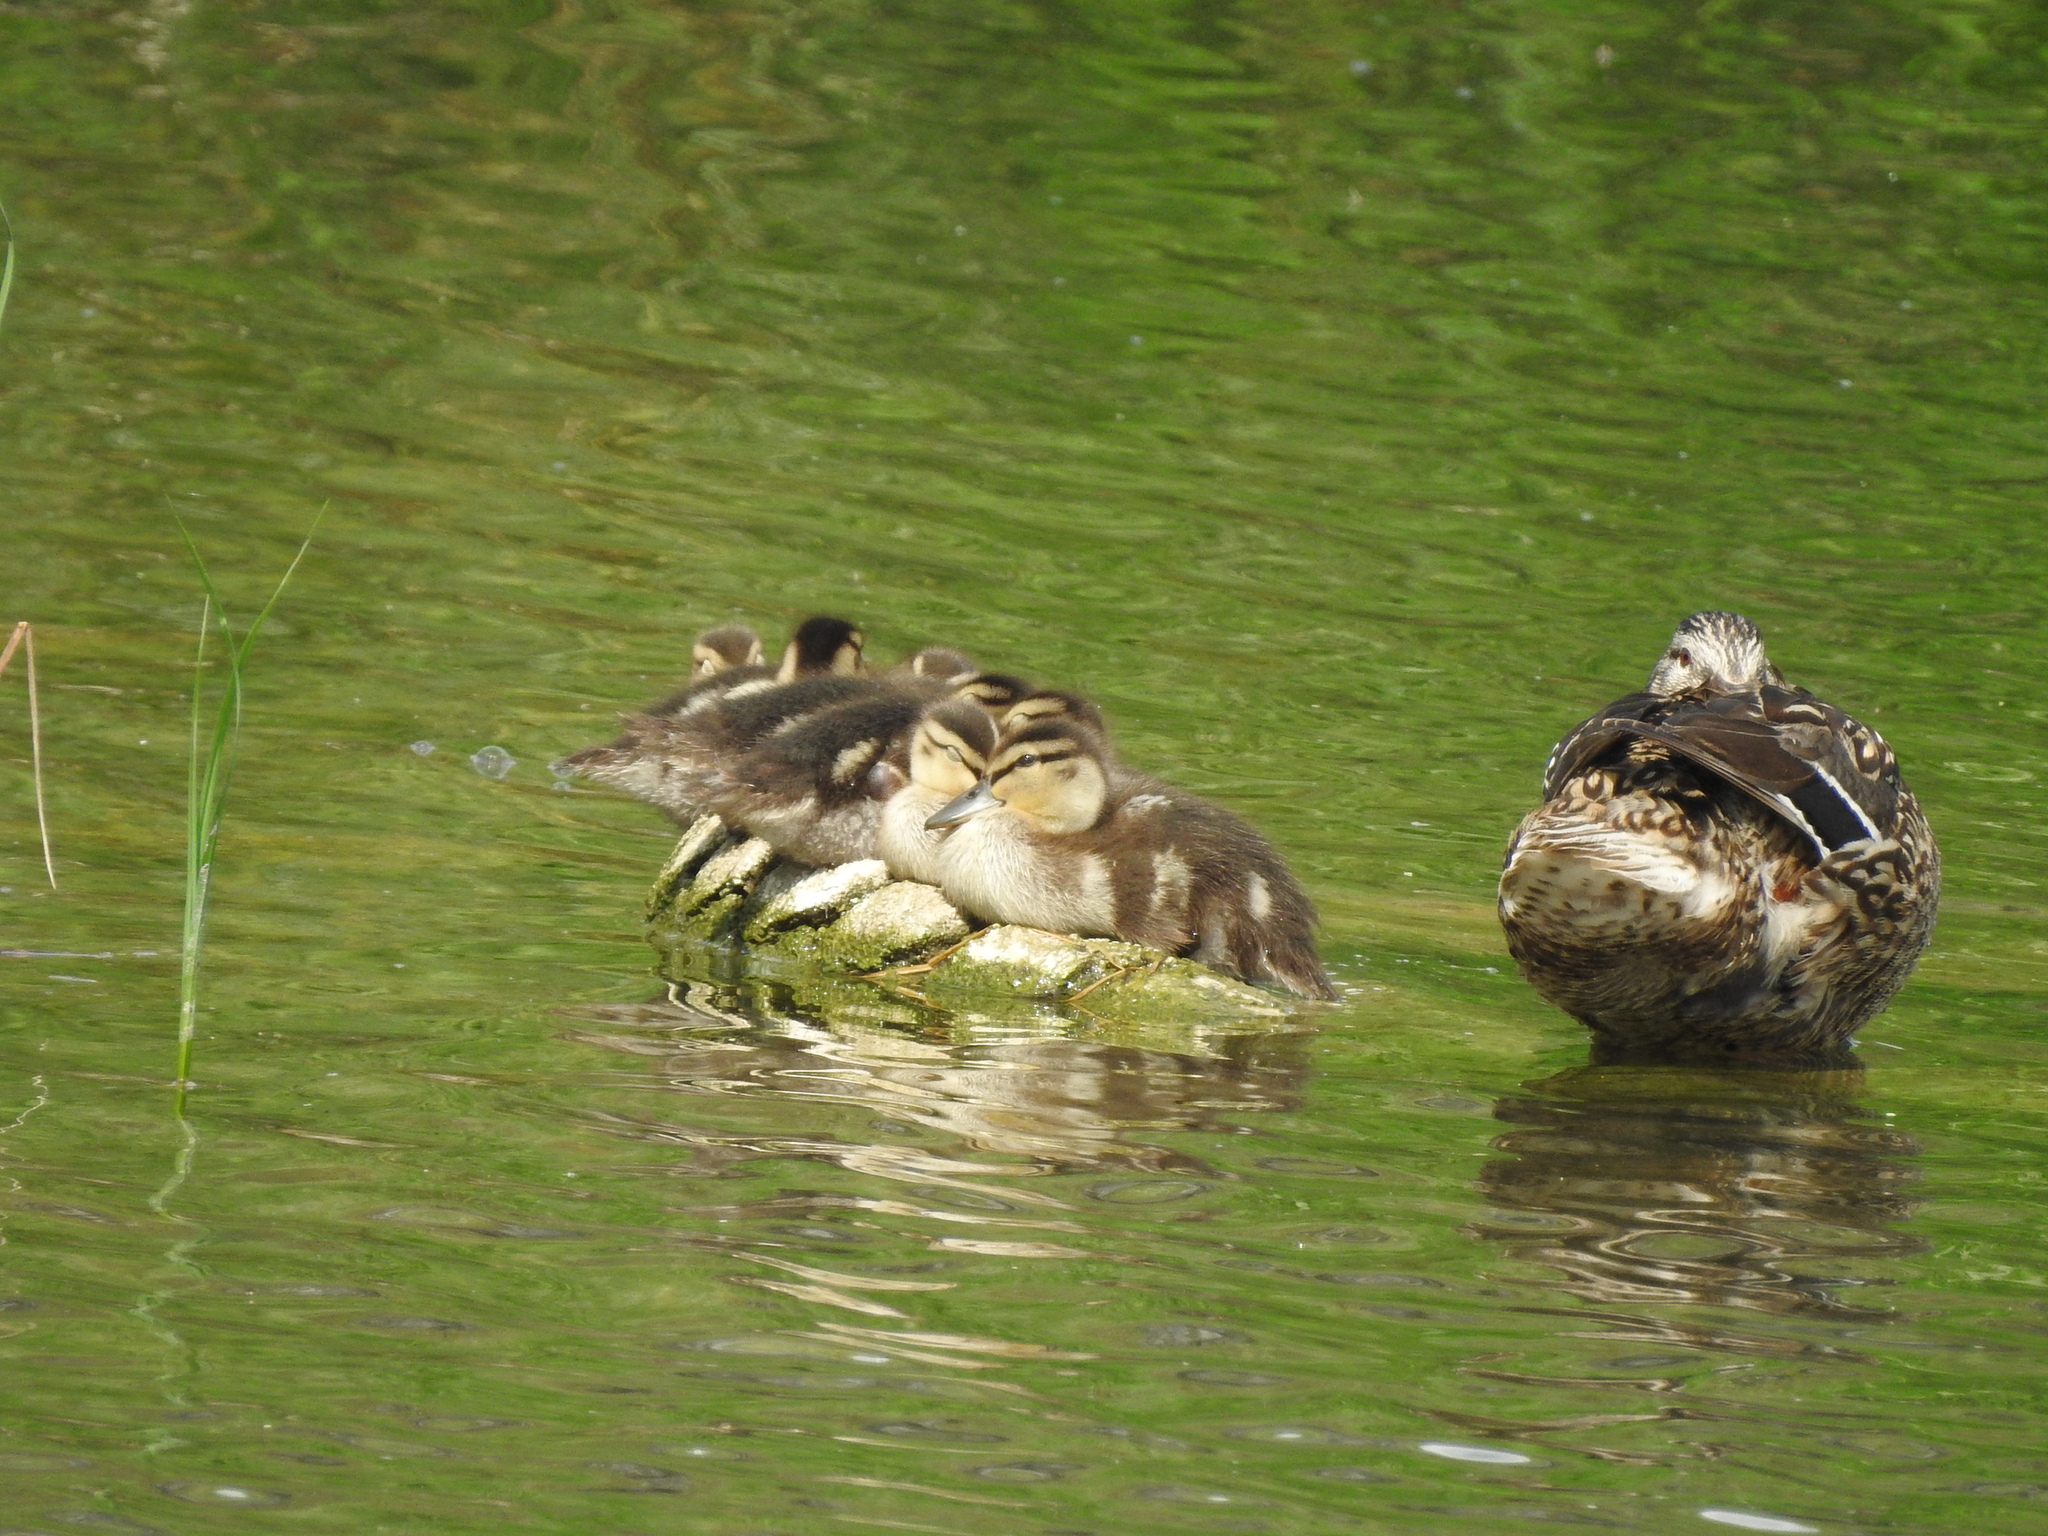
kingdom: Animalia
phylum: Chordata
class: Aves
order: Anseriformes
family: Anatidae
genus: Anas
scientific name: Anas platyrhynchos
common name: Mallard
